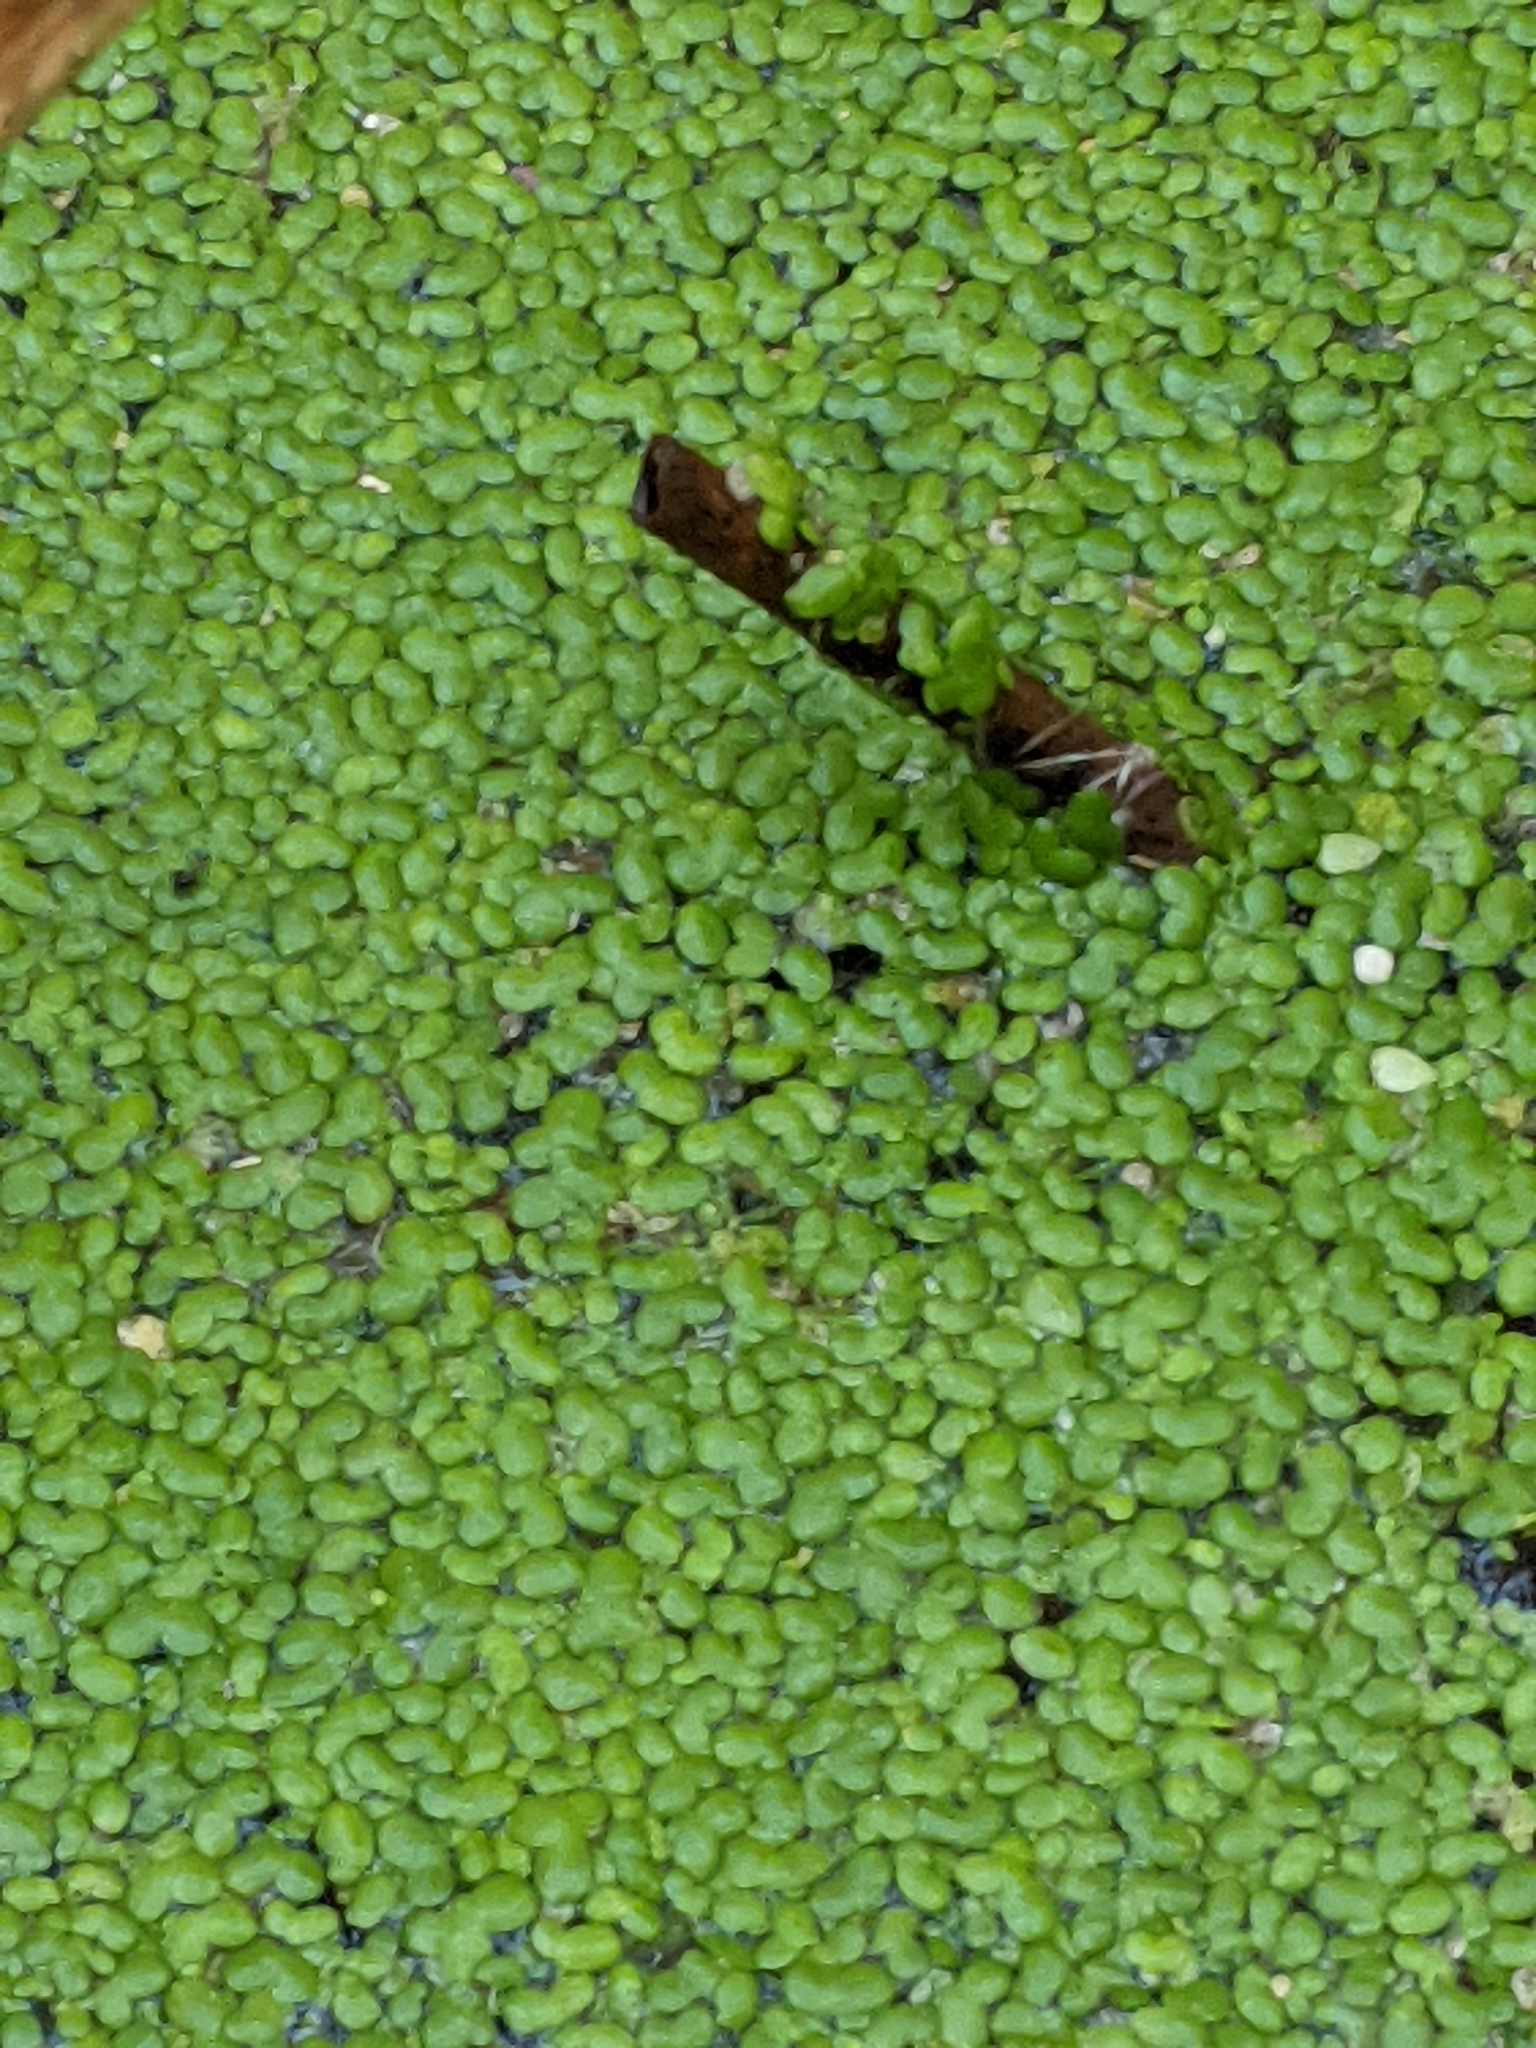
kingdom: Plantae
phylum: Tracheophyta
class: Liliopsida
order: Alismatales
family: Araceae
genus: Lemna
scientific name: Lemna minor
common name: Common duckweed
